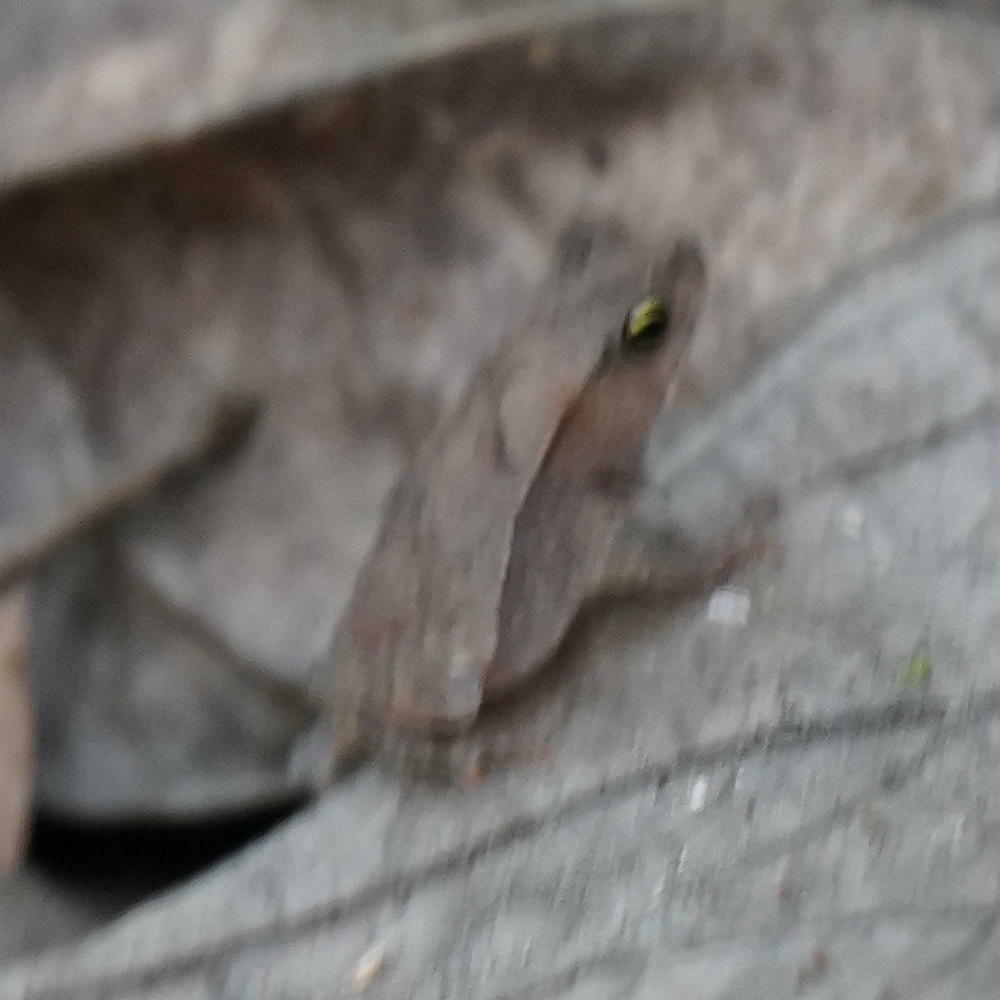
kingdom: Animalia
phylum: Chordata
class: Amphibia
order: Anura
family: Bufonidae
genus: Rhinella
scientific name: Rhinella alata
